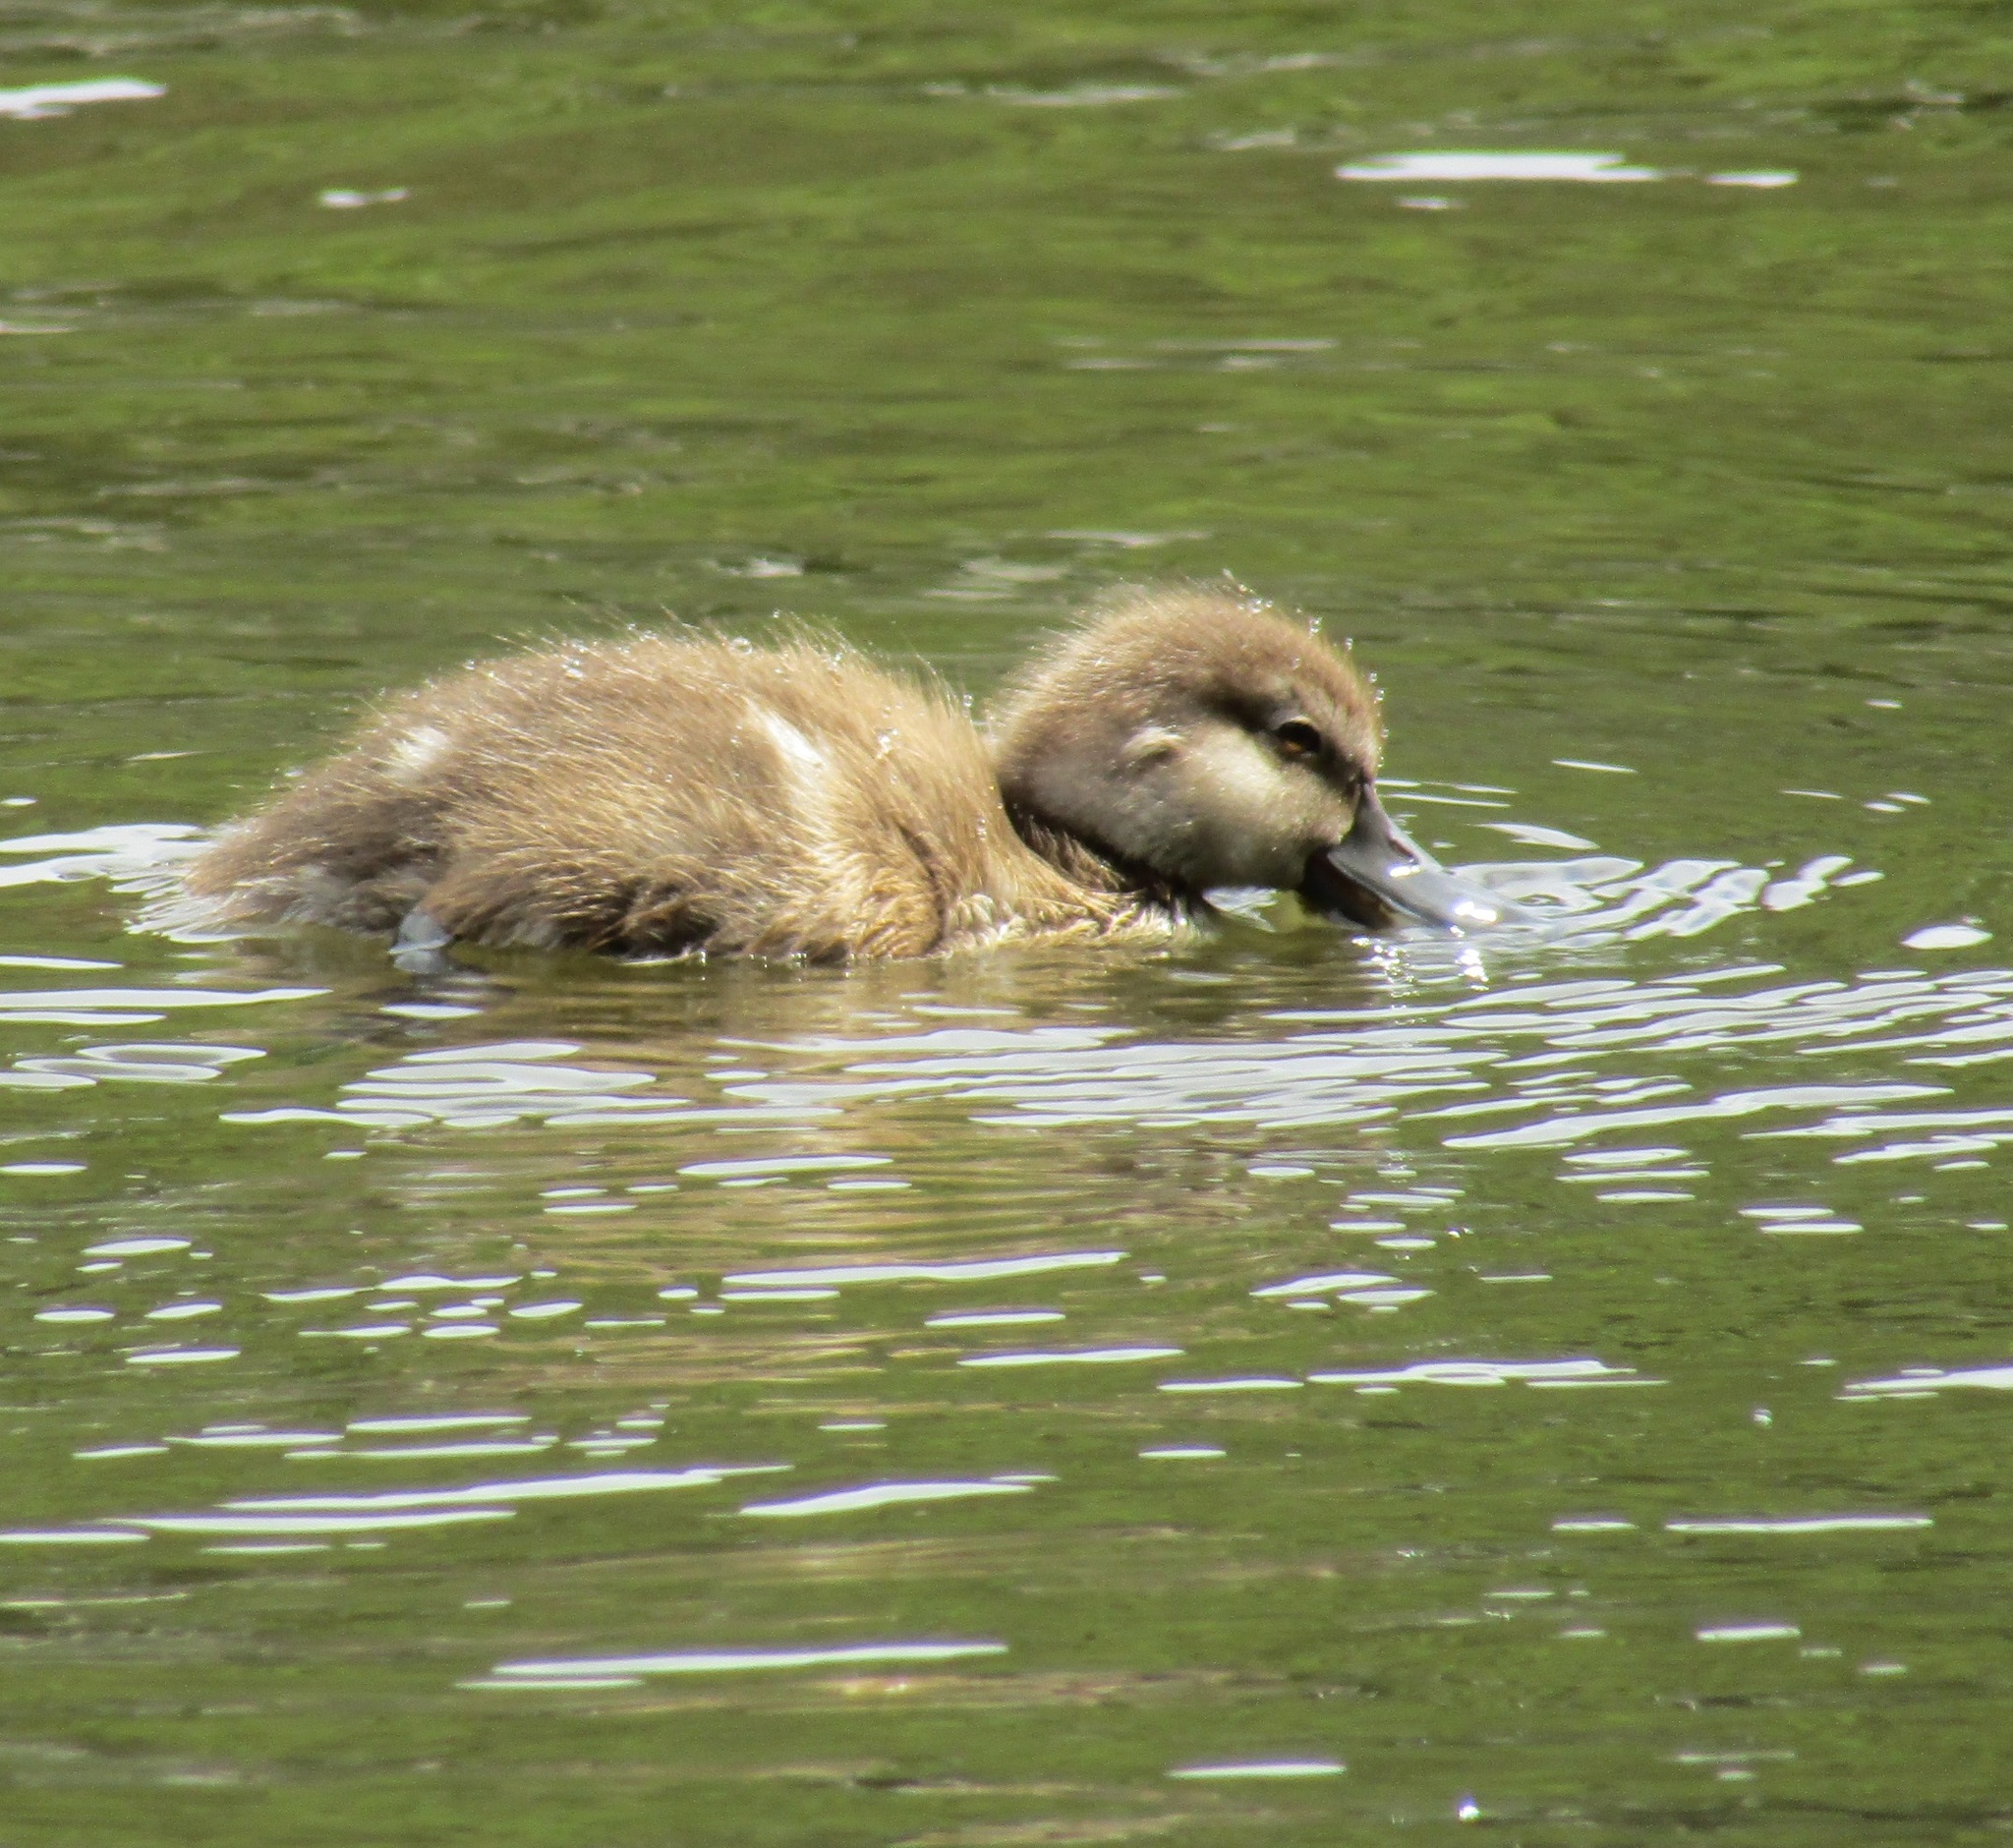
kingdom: Animalia
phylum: Chordata
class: Aves
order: Anseriformes
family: Anatidae
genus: Aythya
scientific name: Aythya novaeseelandiae
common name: New zealand scaup
